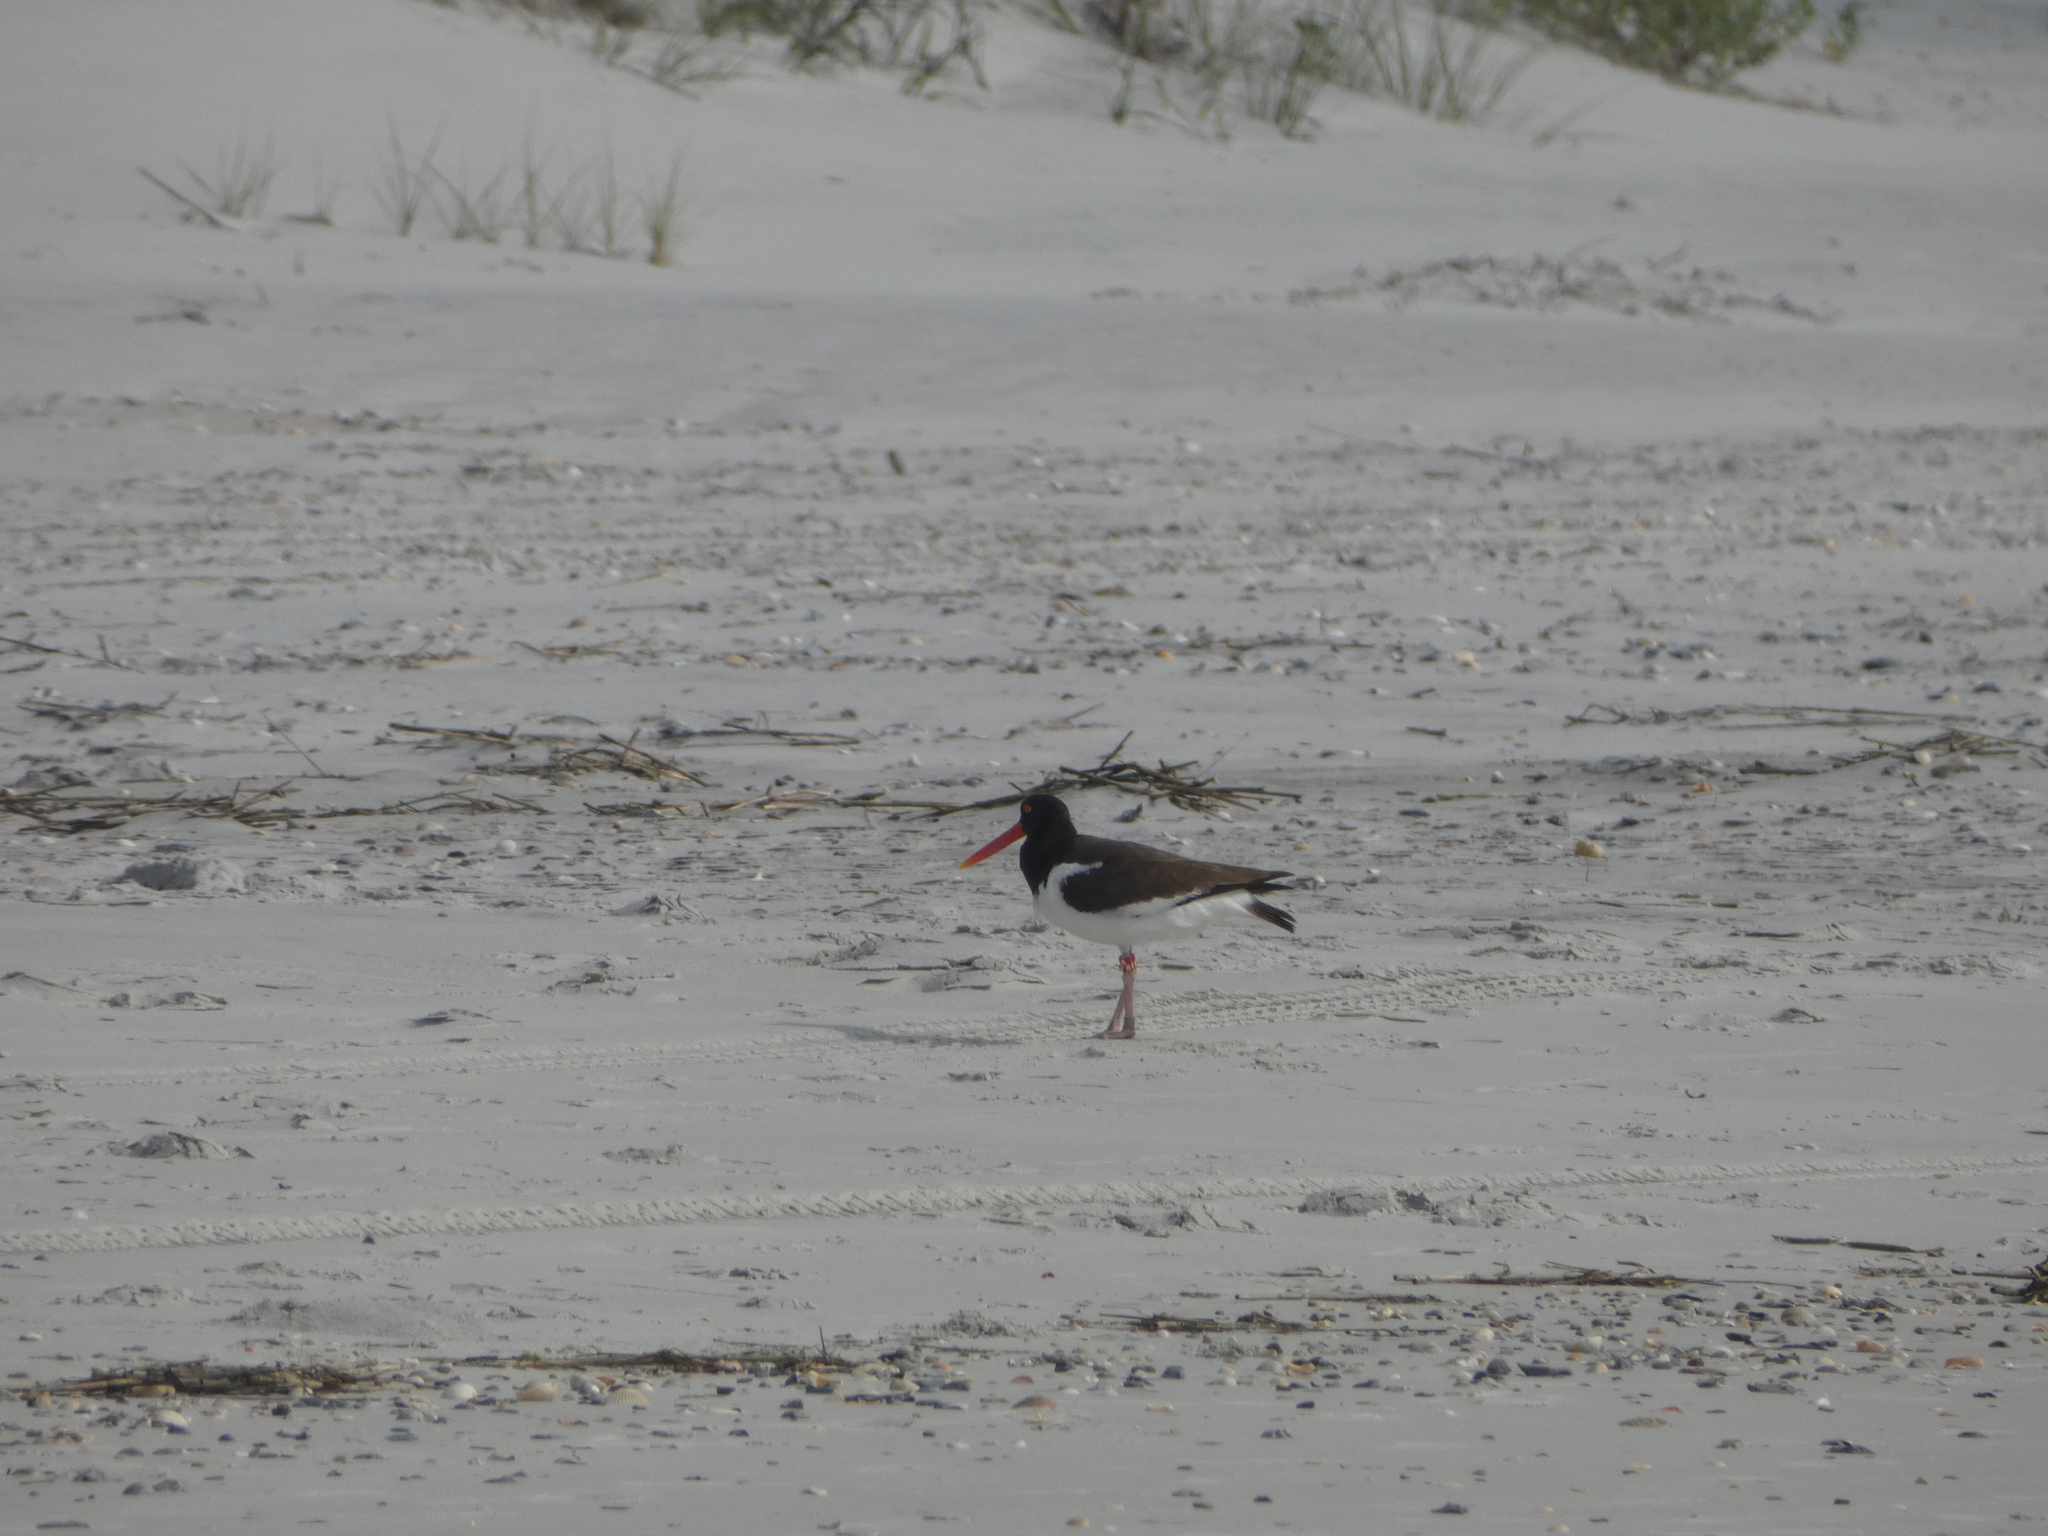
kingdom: Animalia
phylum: Chordata
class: Aves
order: Charadriiformes
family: Haematopodidae
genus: Haematopus
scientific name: Haematopus palliatus
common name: American oystercatcher
